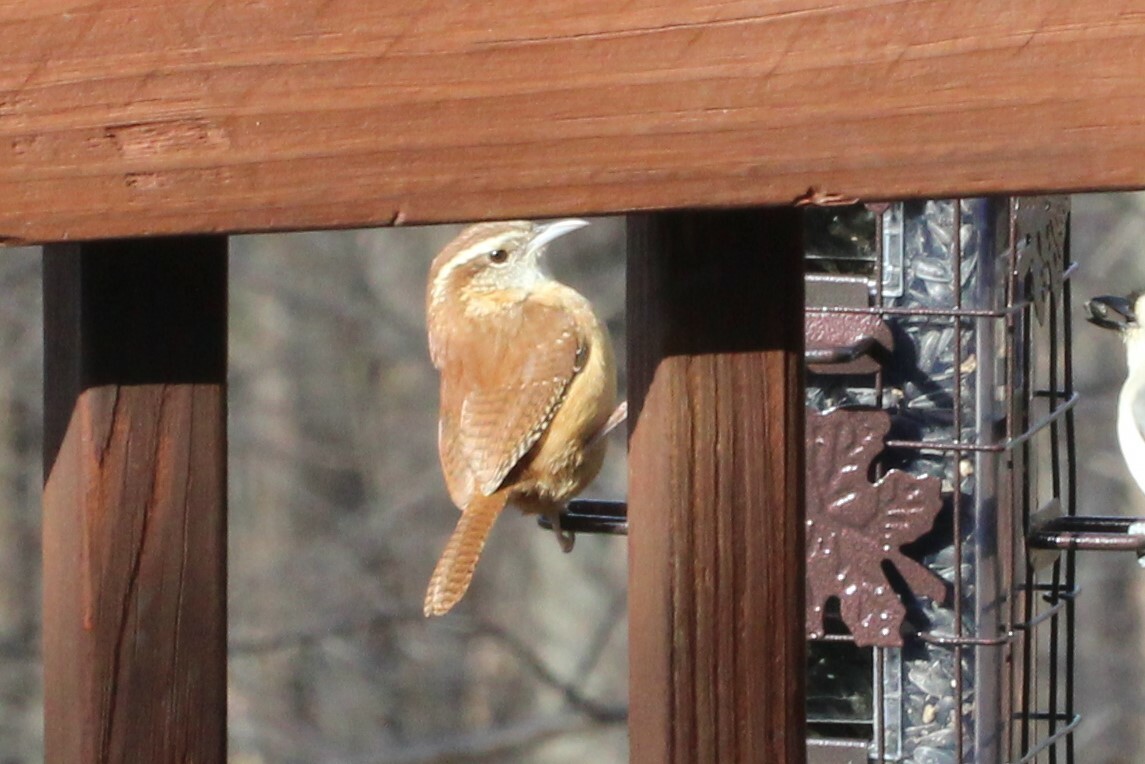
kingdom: Animalia
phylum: Chordata
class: Aves
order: Passeriformes
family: Troglodytidae
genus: Thryothorus
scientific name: Thryothorus ludovicianus
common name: Carolina wren
